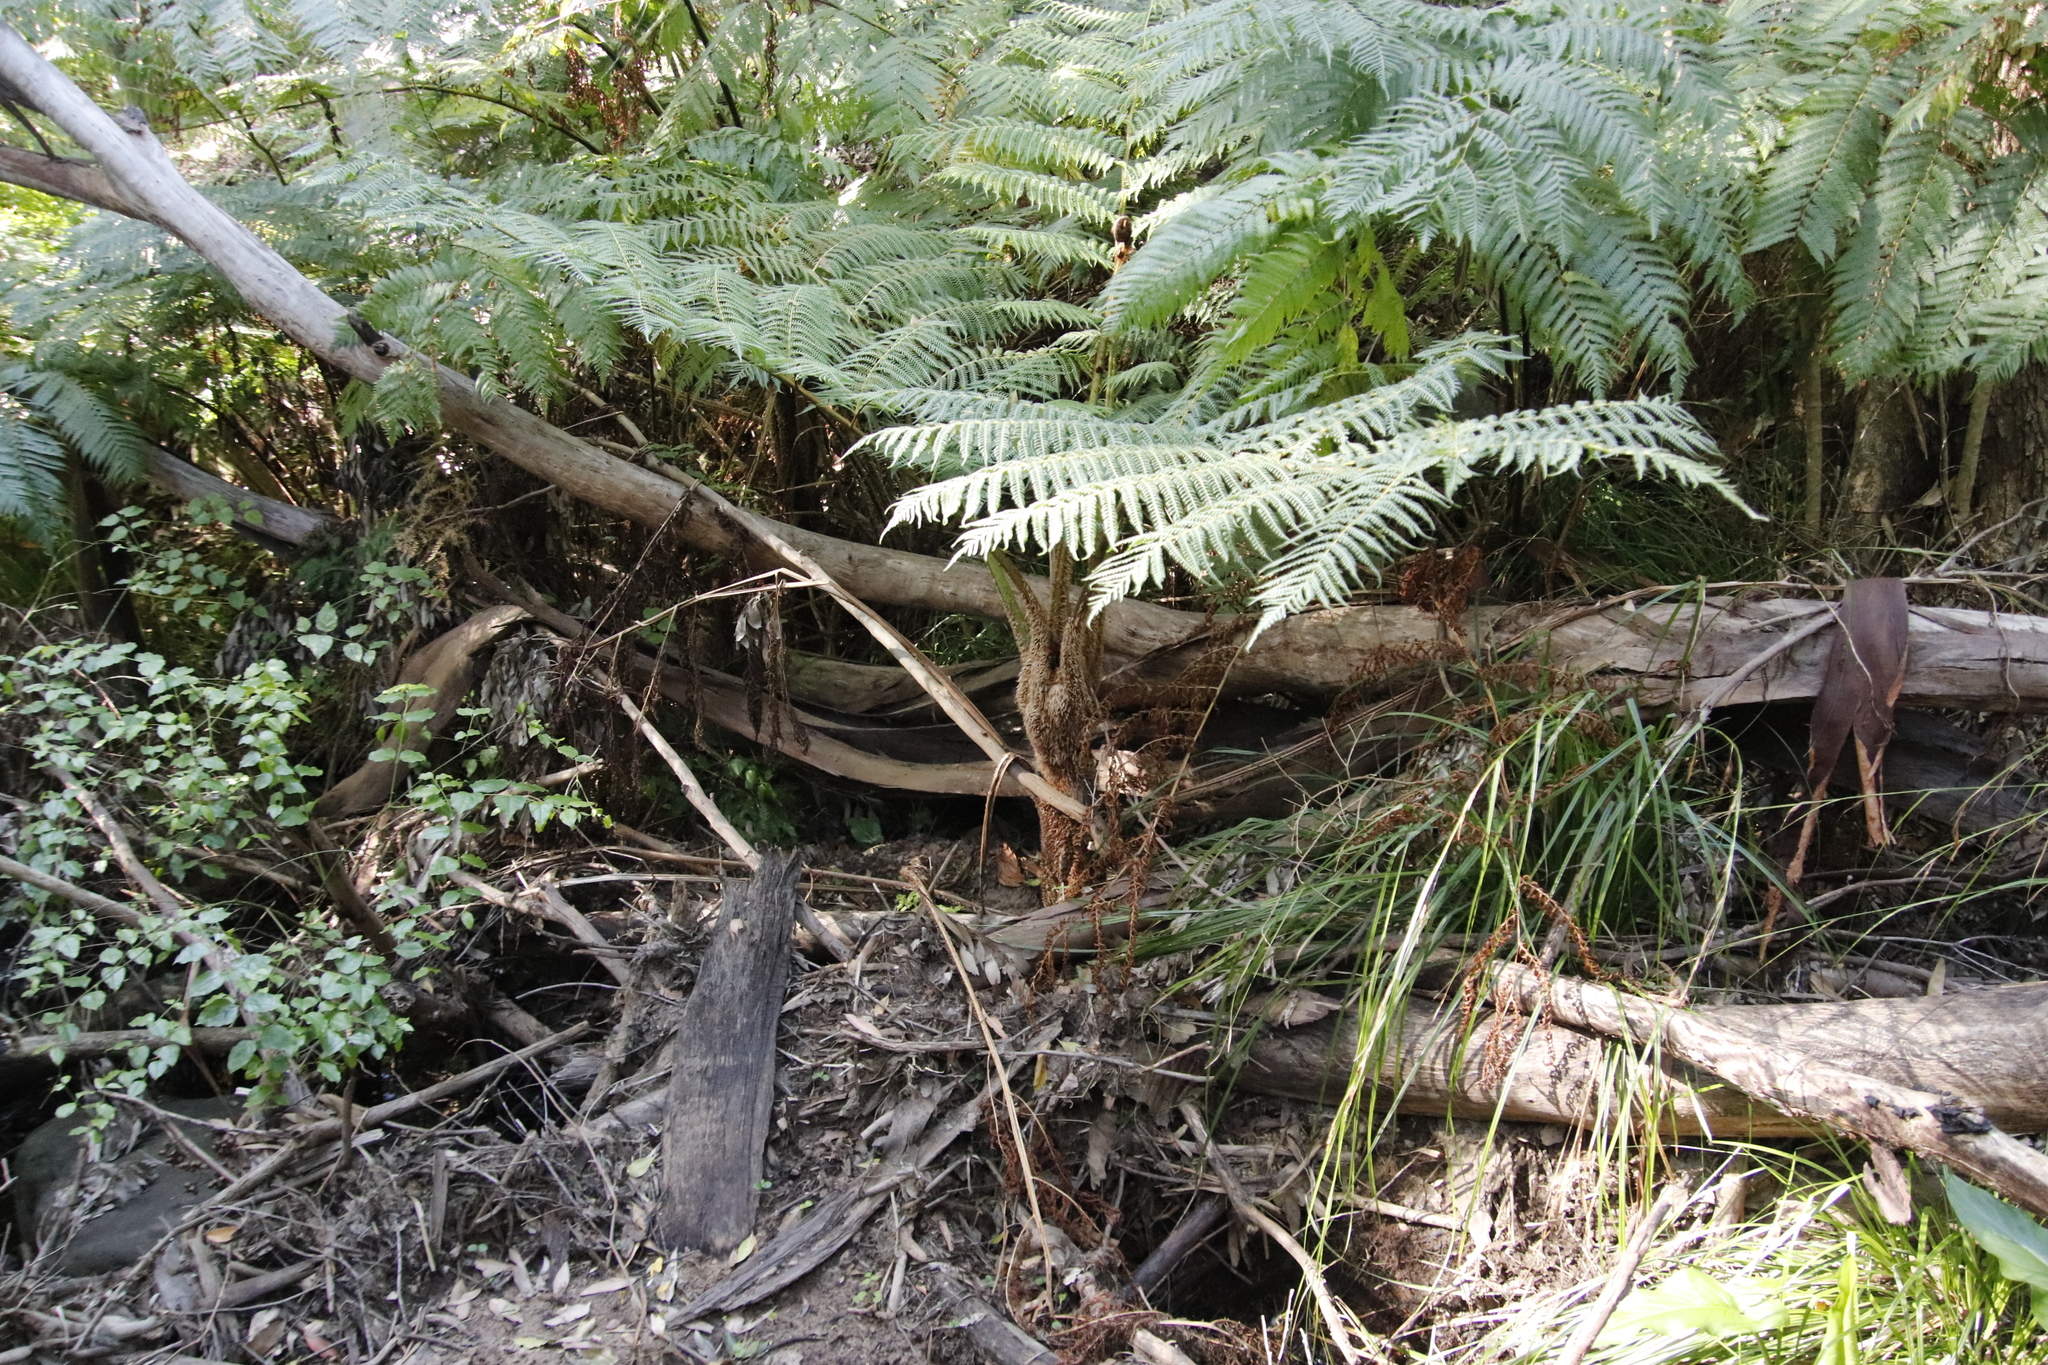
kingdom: Plantae
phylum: Tracheophyta
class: Polypodiopsida
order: Cyatheales
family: Cyatheaceae
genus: Sphaeropteris
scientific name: Sphaeropteris cooperi
